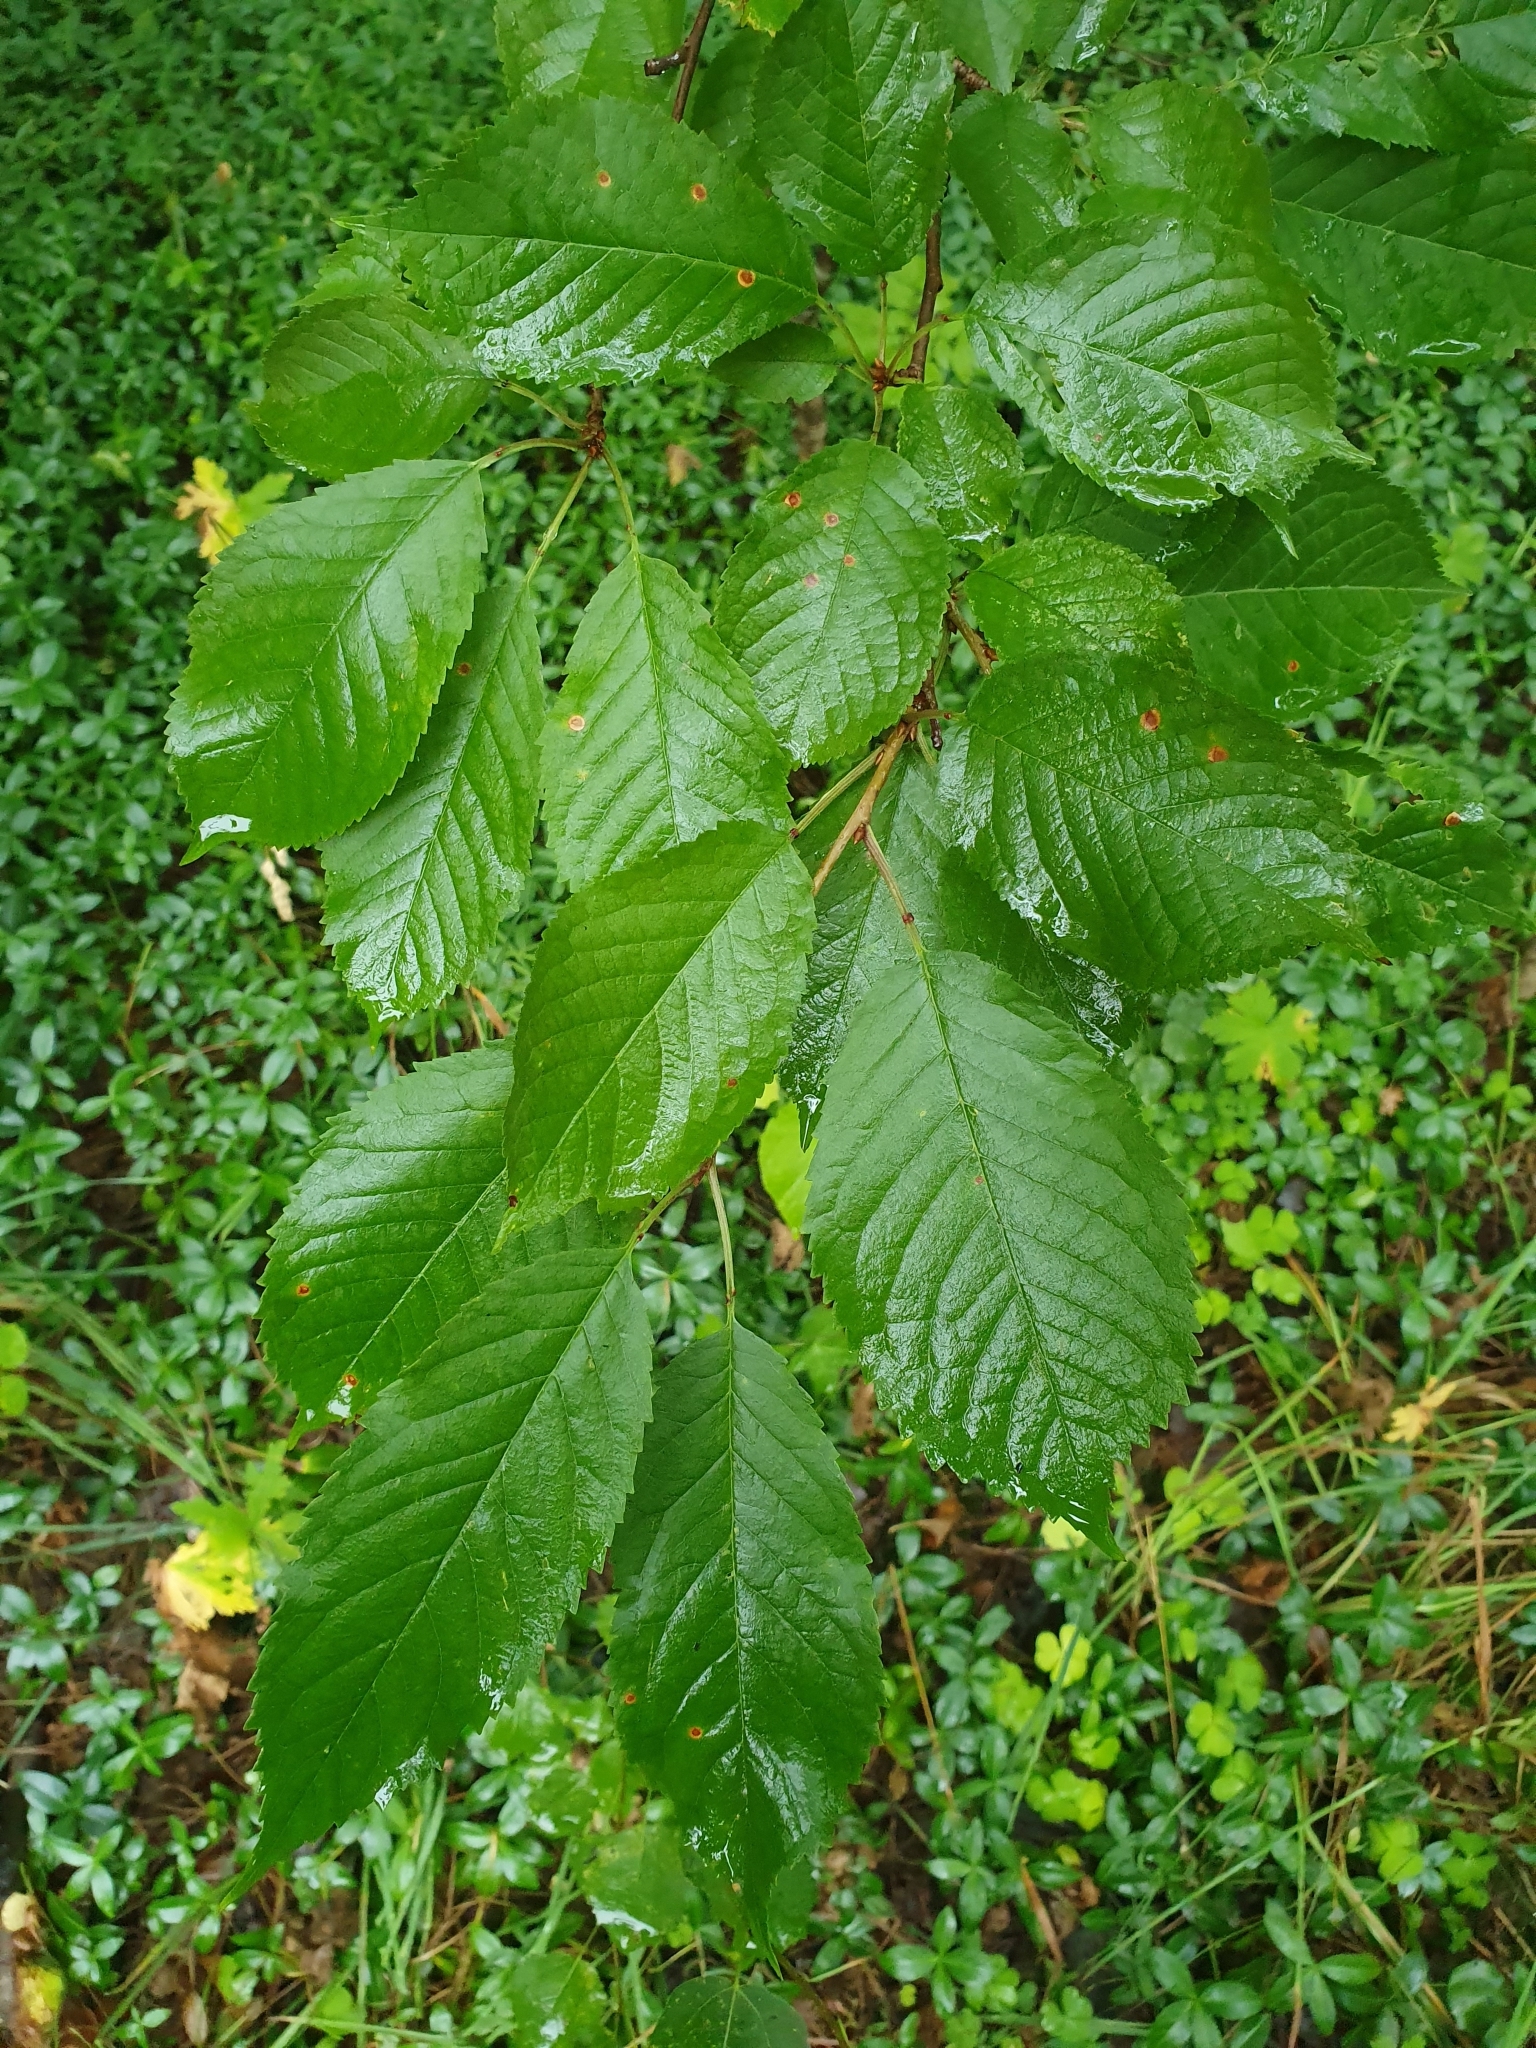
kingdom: Plantae
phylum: Tracheophyta
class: Magnoliopsida
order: Rosales
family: Rosaceae
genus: Prunus
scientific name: Prunus avium
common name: Sweet cherry
